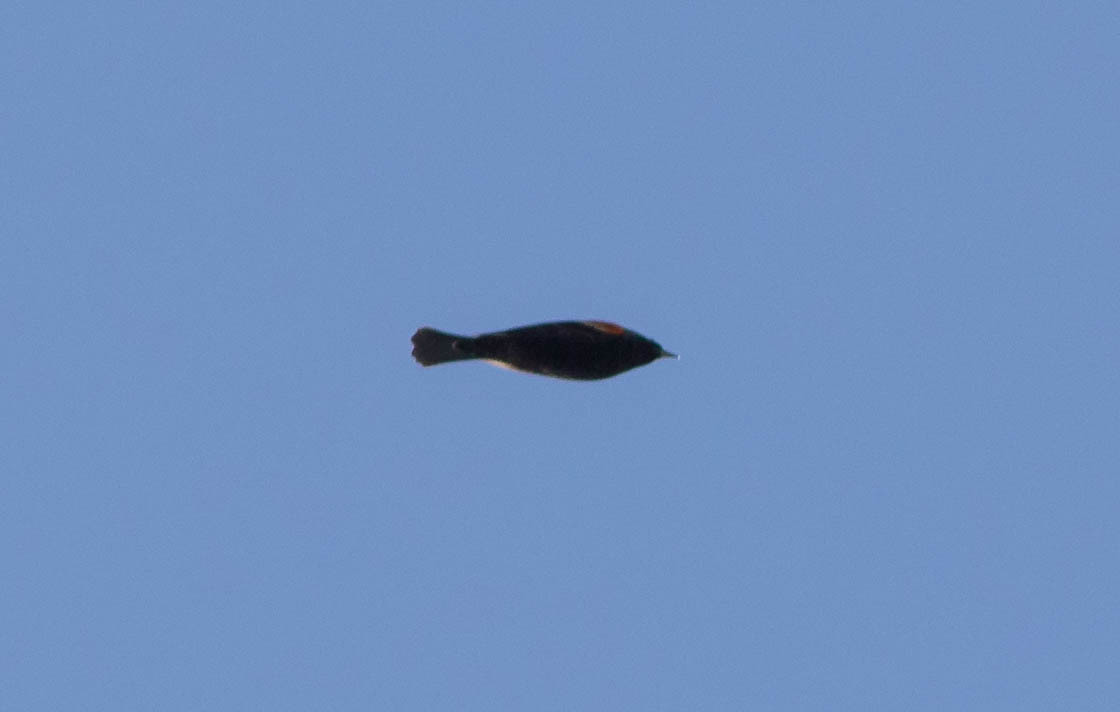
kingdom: Animalia
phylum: Chordata
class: Aves
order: Passeriformes
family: Icteridae
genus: Agelaius
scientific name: Agelaius phoeniceus
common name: Red-winged blackbird
